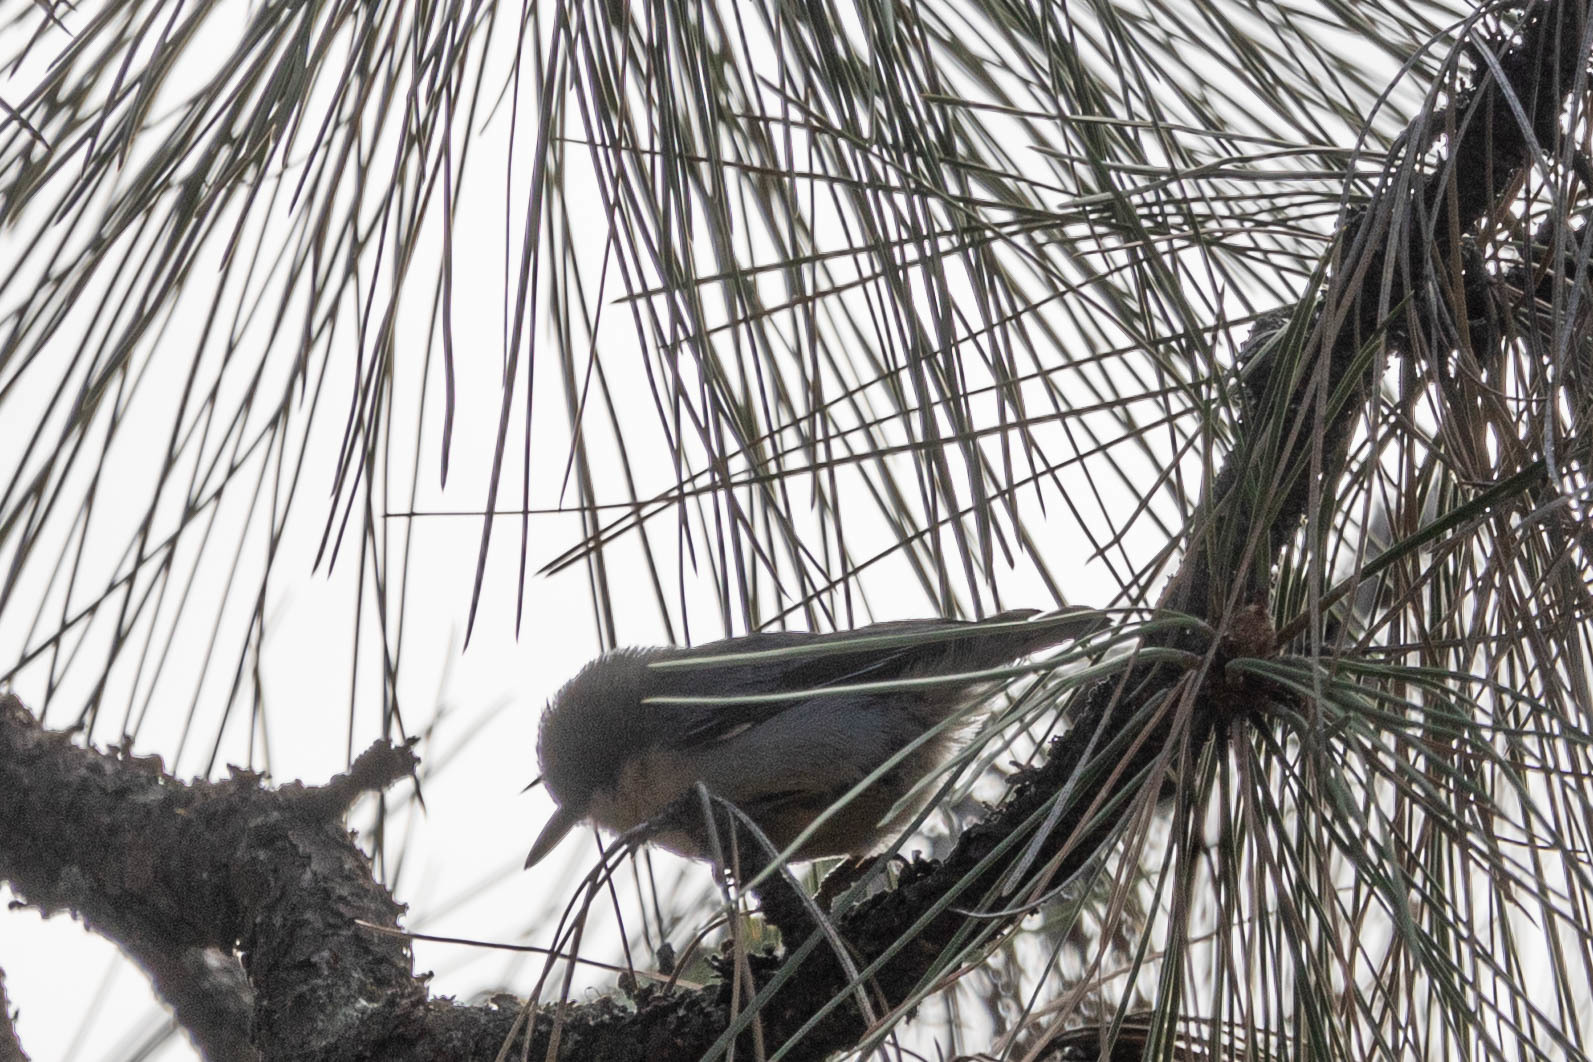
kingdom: Animalia
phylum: Chordata
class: Aves
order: Passeriformes
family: Sittidae
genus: Sitta
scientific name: Sitta pygmaea
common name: Pygmy nuthatch
